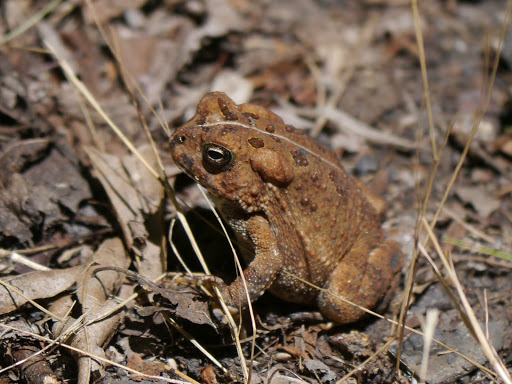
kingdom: Animalia
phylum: Chordata
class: Amphibia
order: Anura
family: Bufonidae
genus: Anaxyrus
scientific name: Anaxyrus fowleri
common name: Fowler's toad
